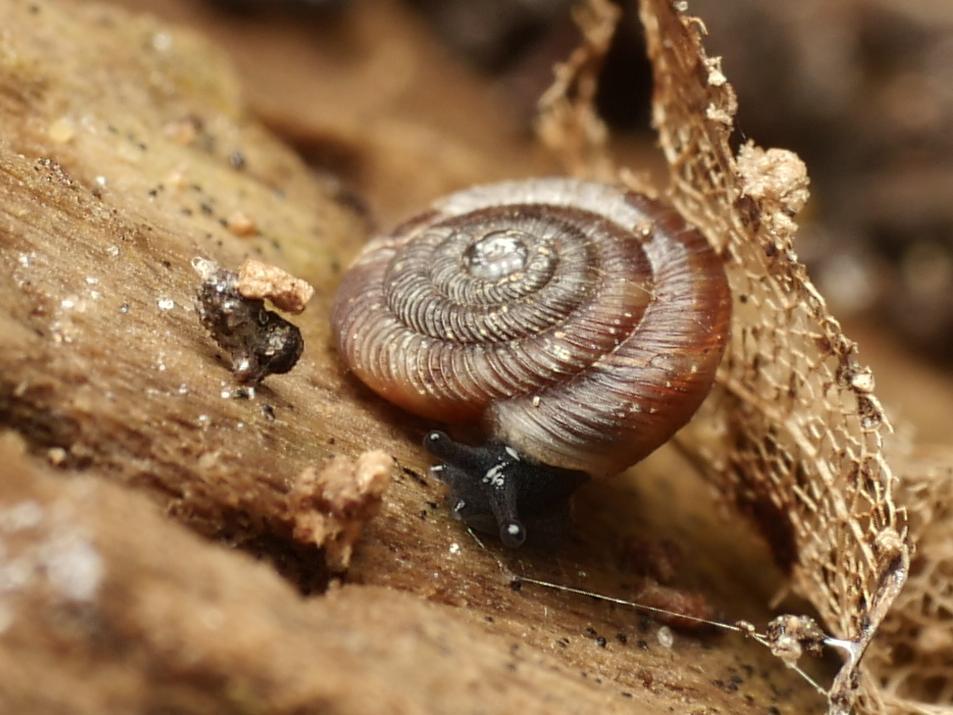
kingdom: Animalia
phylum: Mollusca
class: Gastropoda
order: Stylommatophora
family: Discidae
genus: Discus
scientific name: Discus rotundatus
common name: Rounded snail
